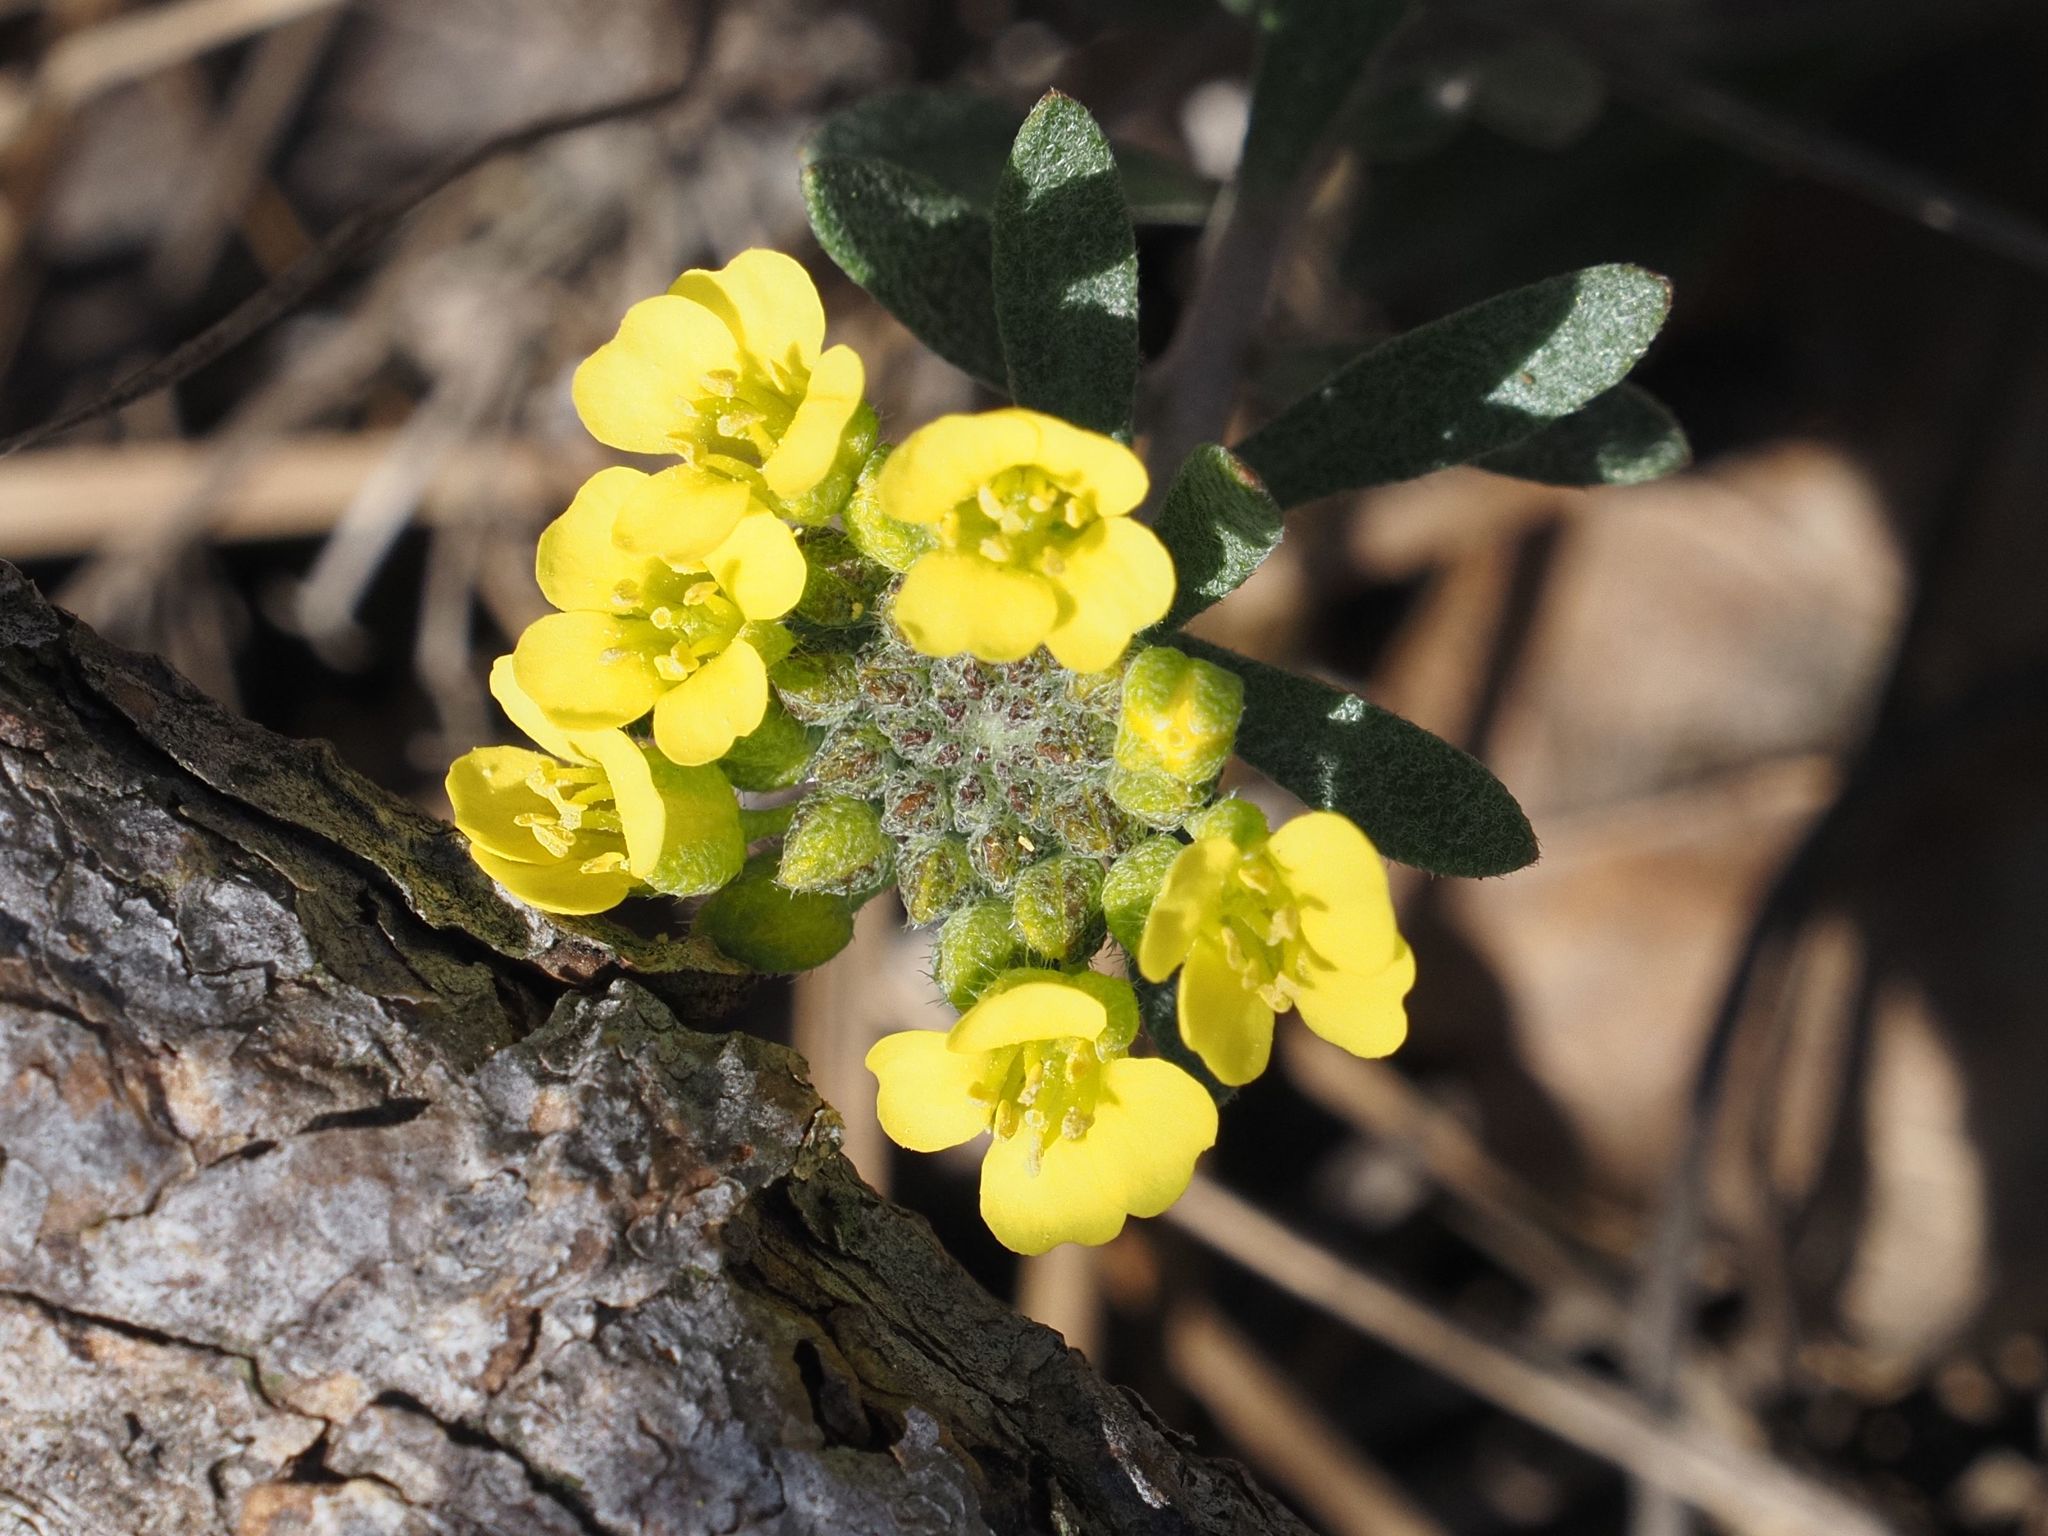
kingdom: Plantae
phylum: Tracheophyta
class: Magnoliopsida
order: Brassicales
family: Brassicaceae
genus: Alyssum
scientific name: Alyssum gmelinii
